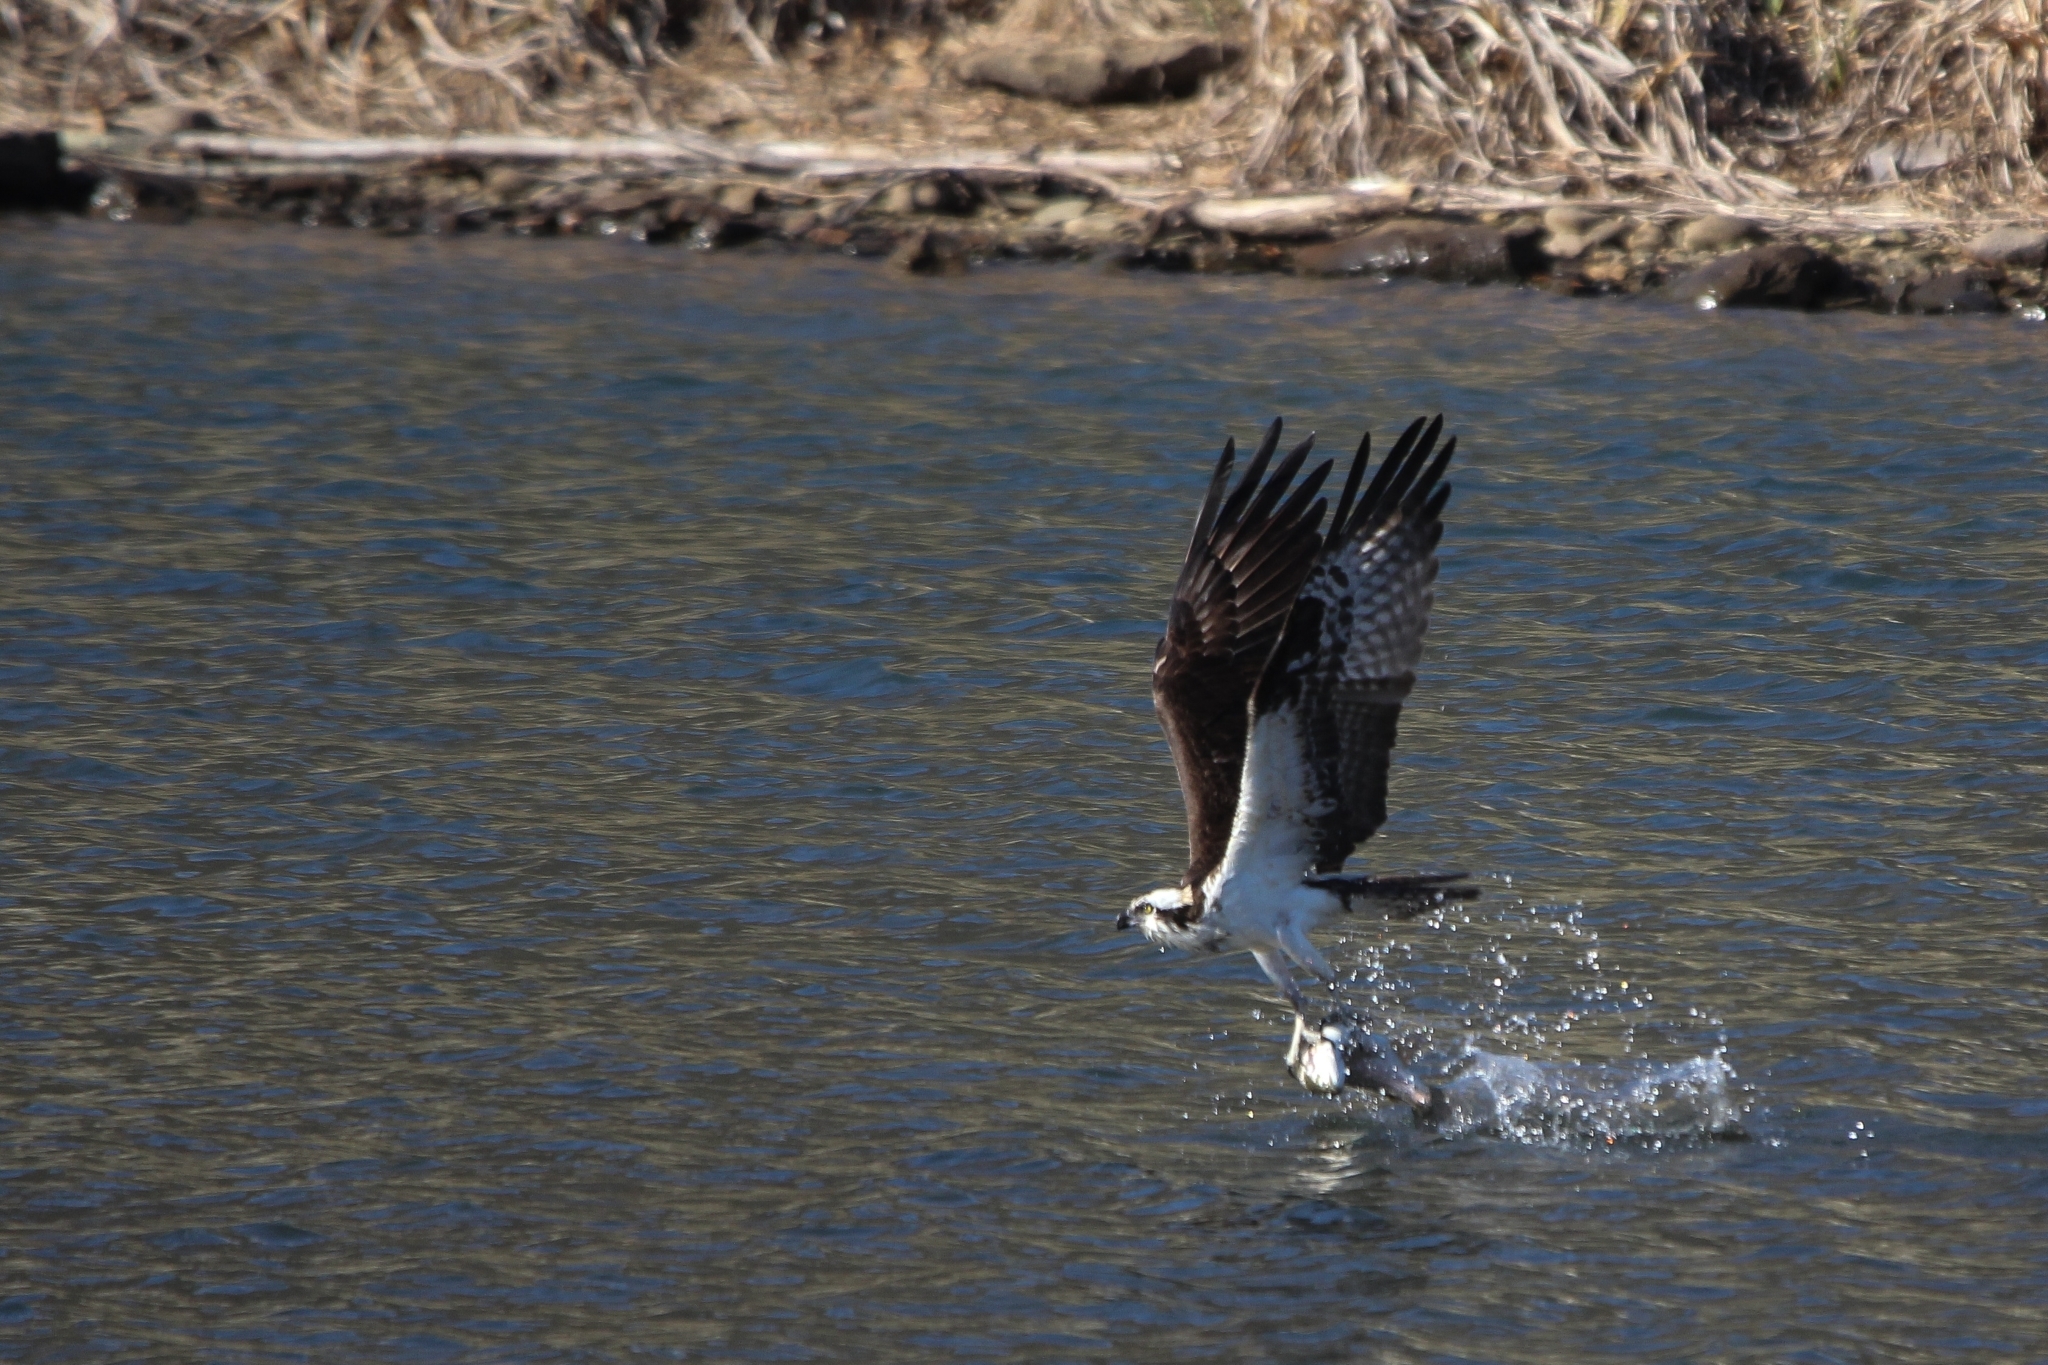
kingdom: Animalia
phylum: Chordata
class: Aves
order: Accipitriformes
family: Pandionidae
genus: Pandion
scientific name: Pandion haliaetus
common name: Osprey
